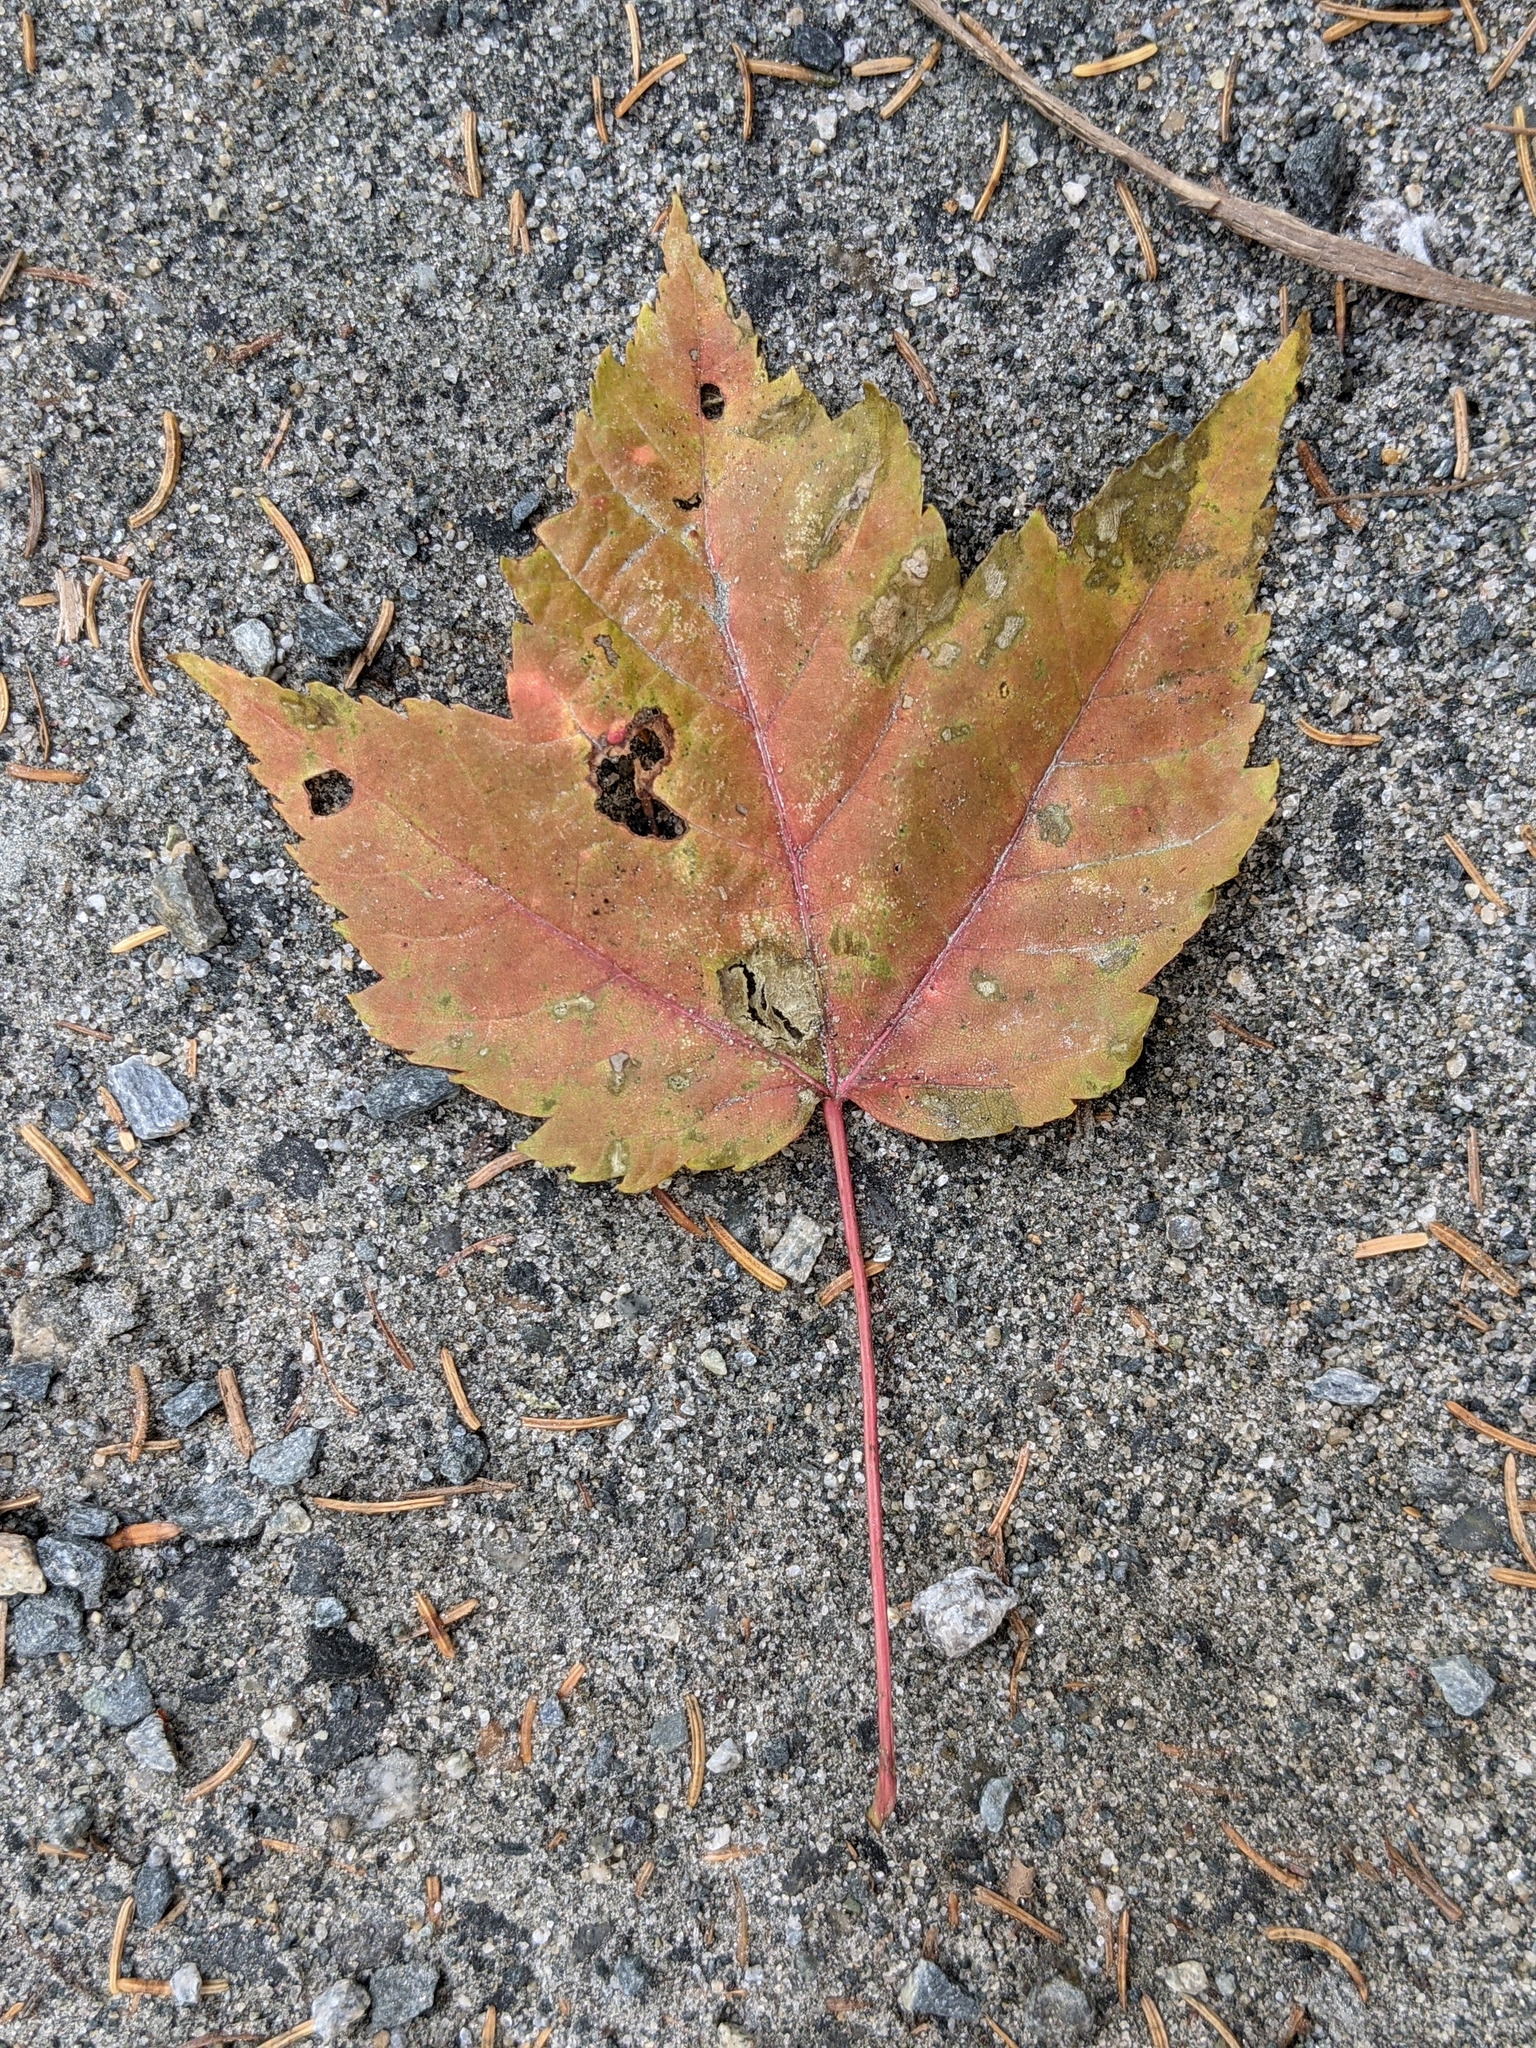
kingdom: Plantae
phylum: Tracheophyta
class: Magnoliopsida
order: Sapindales
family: Sapindaceae
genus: Acer
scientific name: Acer rubrum
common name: Red maple
